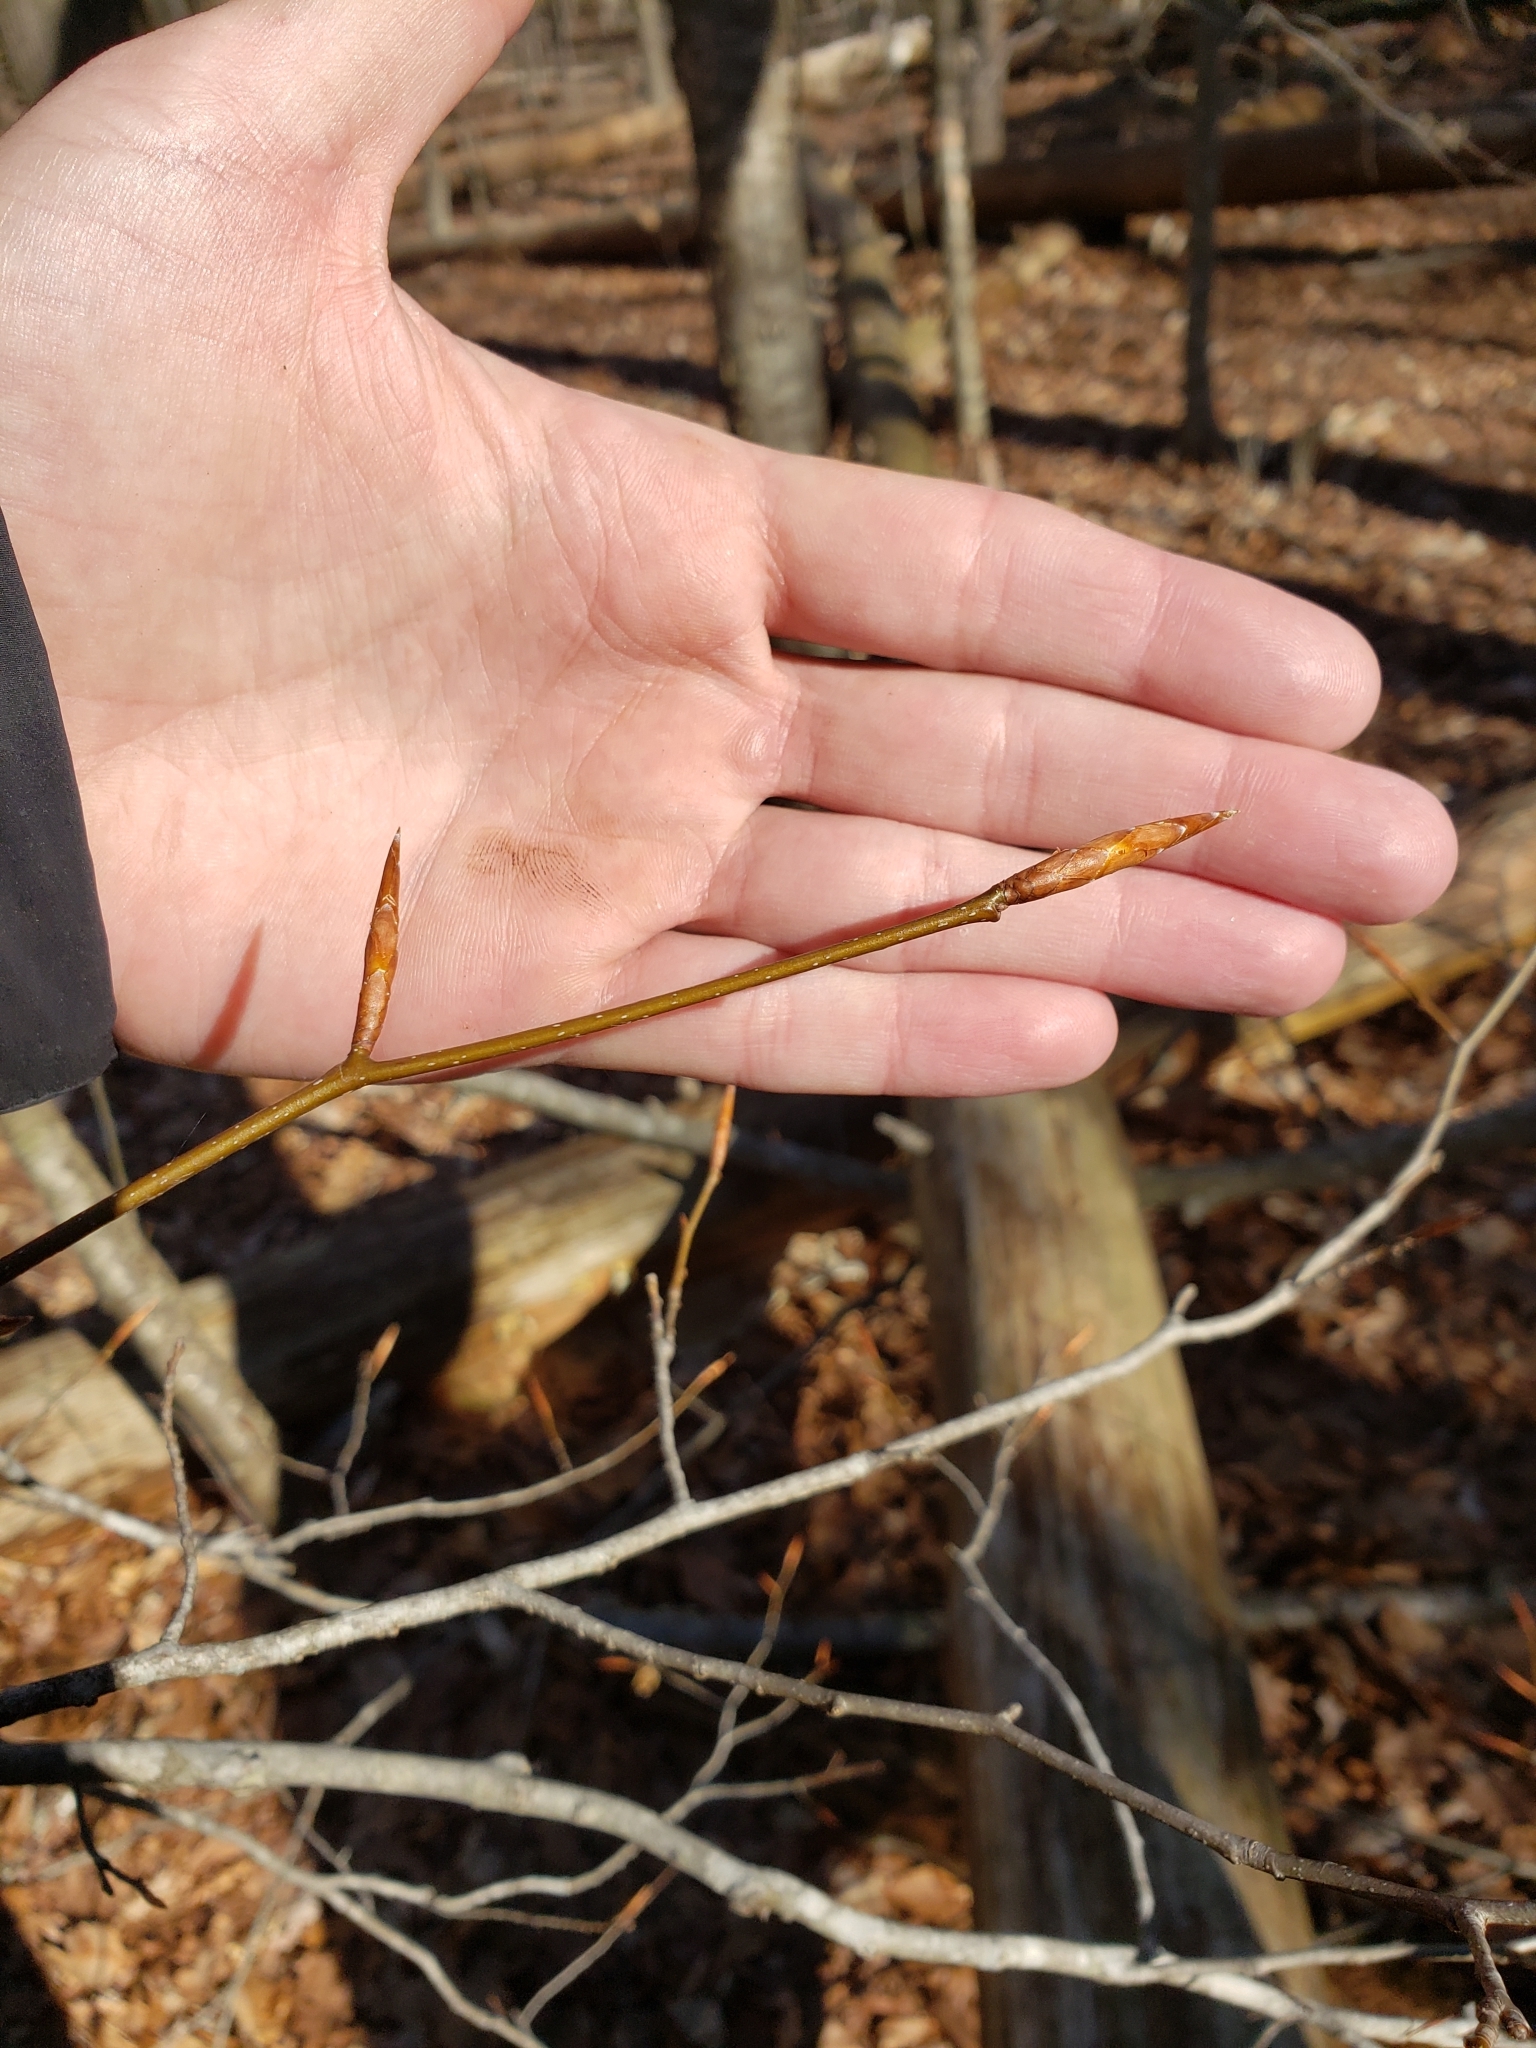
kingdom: Plantae
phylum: Tracheophyta
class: Magnoliopsida
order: Fagales
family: Fagaceae
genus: Fagus
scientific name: Fagus grandifolia
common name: American beech
